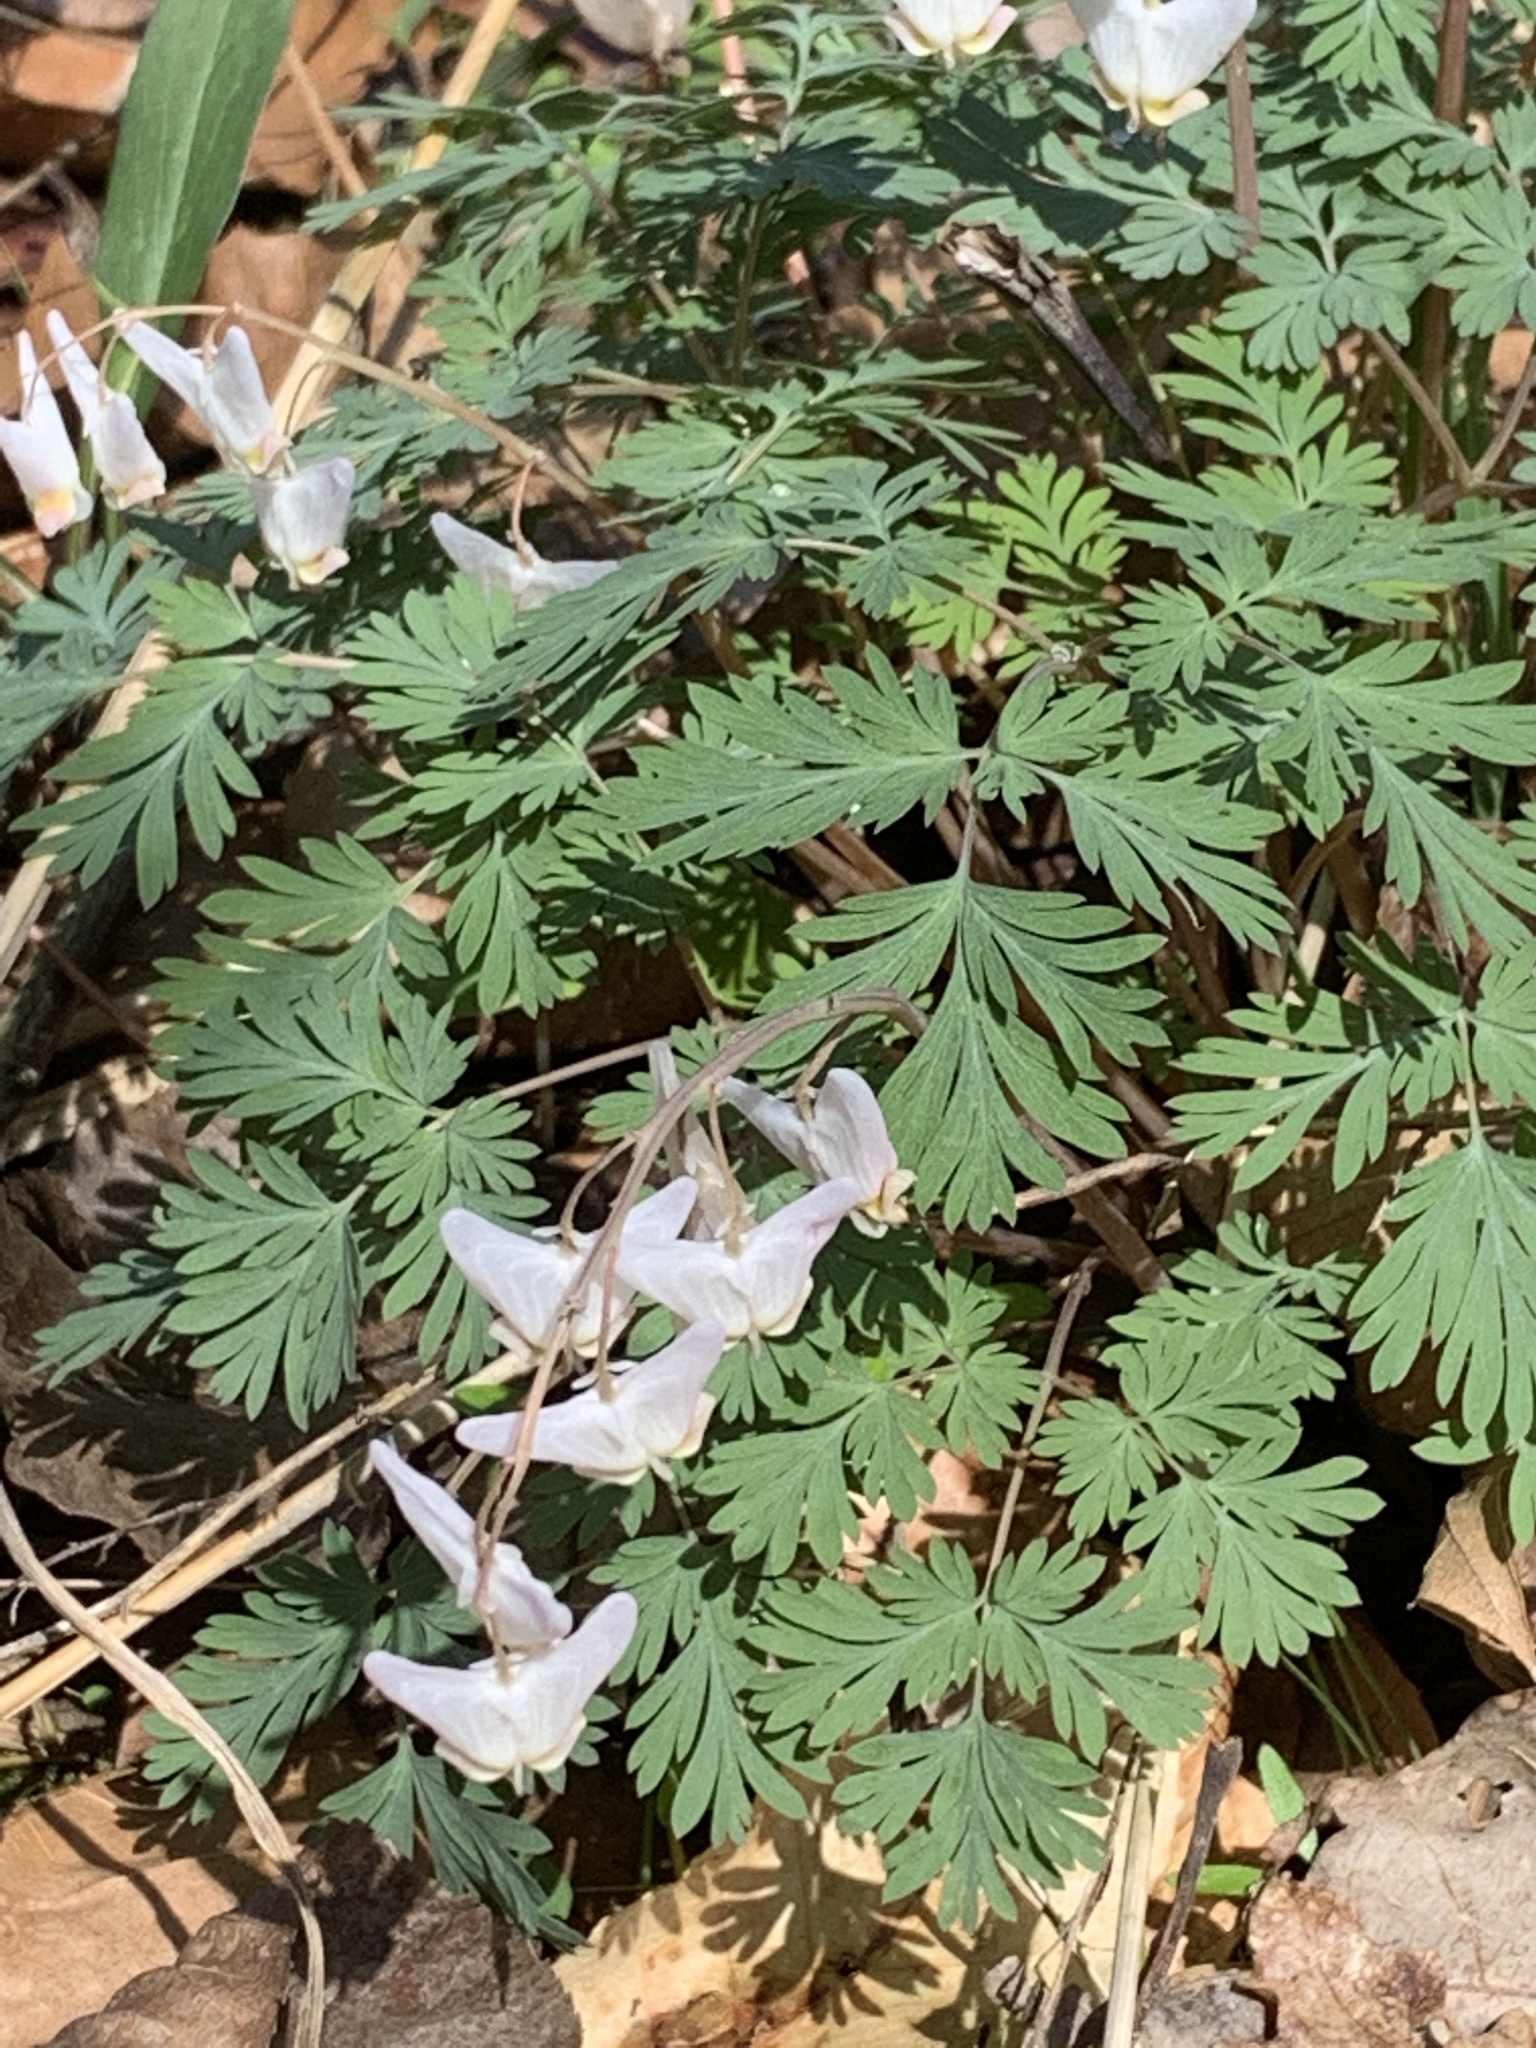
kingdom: Plantae
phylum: Tracheophyta
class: Magnoliopsida
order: Ranunculales
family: Papaveraceae
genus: Dicentra
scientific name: Dicentra cucullaria
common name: Dutchman's breeches
